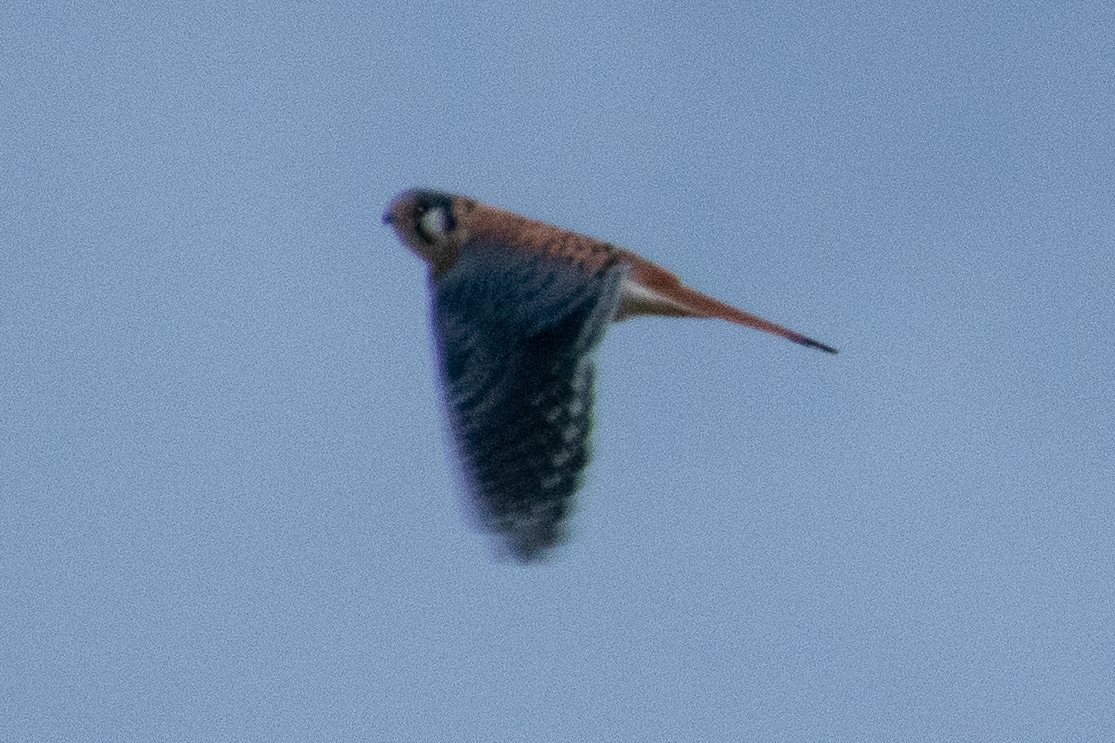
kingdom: Animalia
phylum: Chordata
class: Aves
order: Falconiformes
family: Falconidae
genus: Falco
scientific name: Falco sparverius
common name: American kestrel
